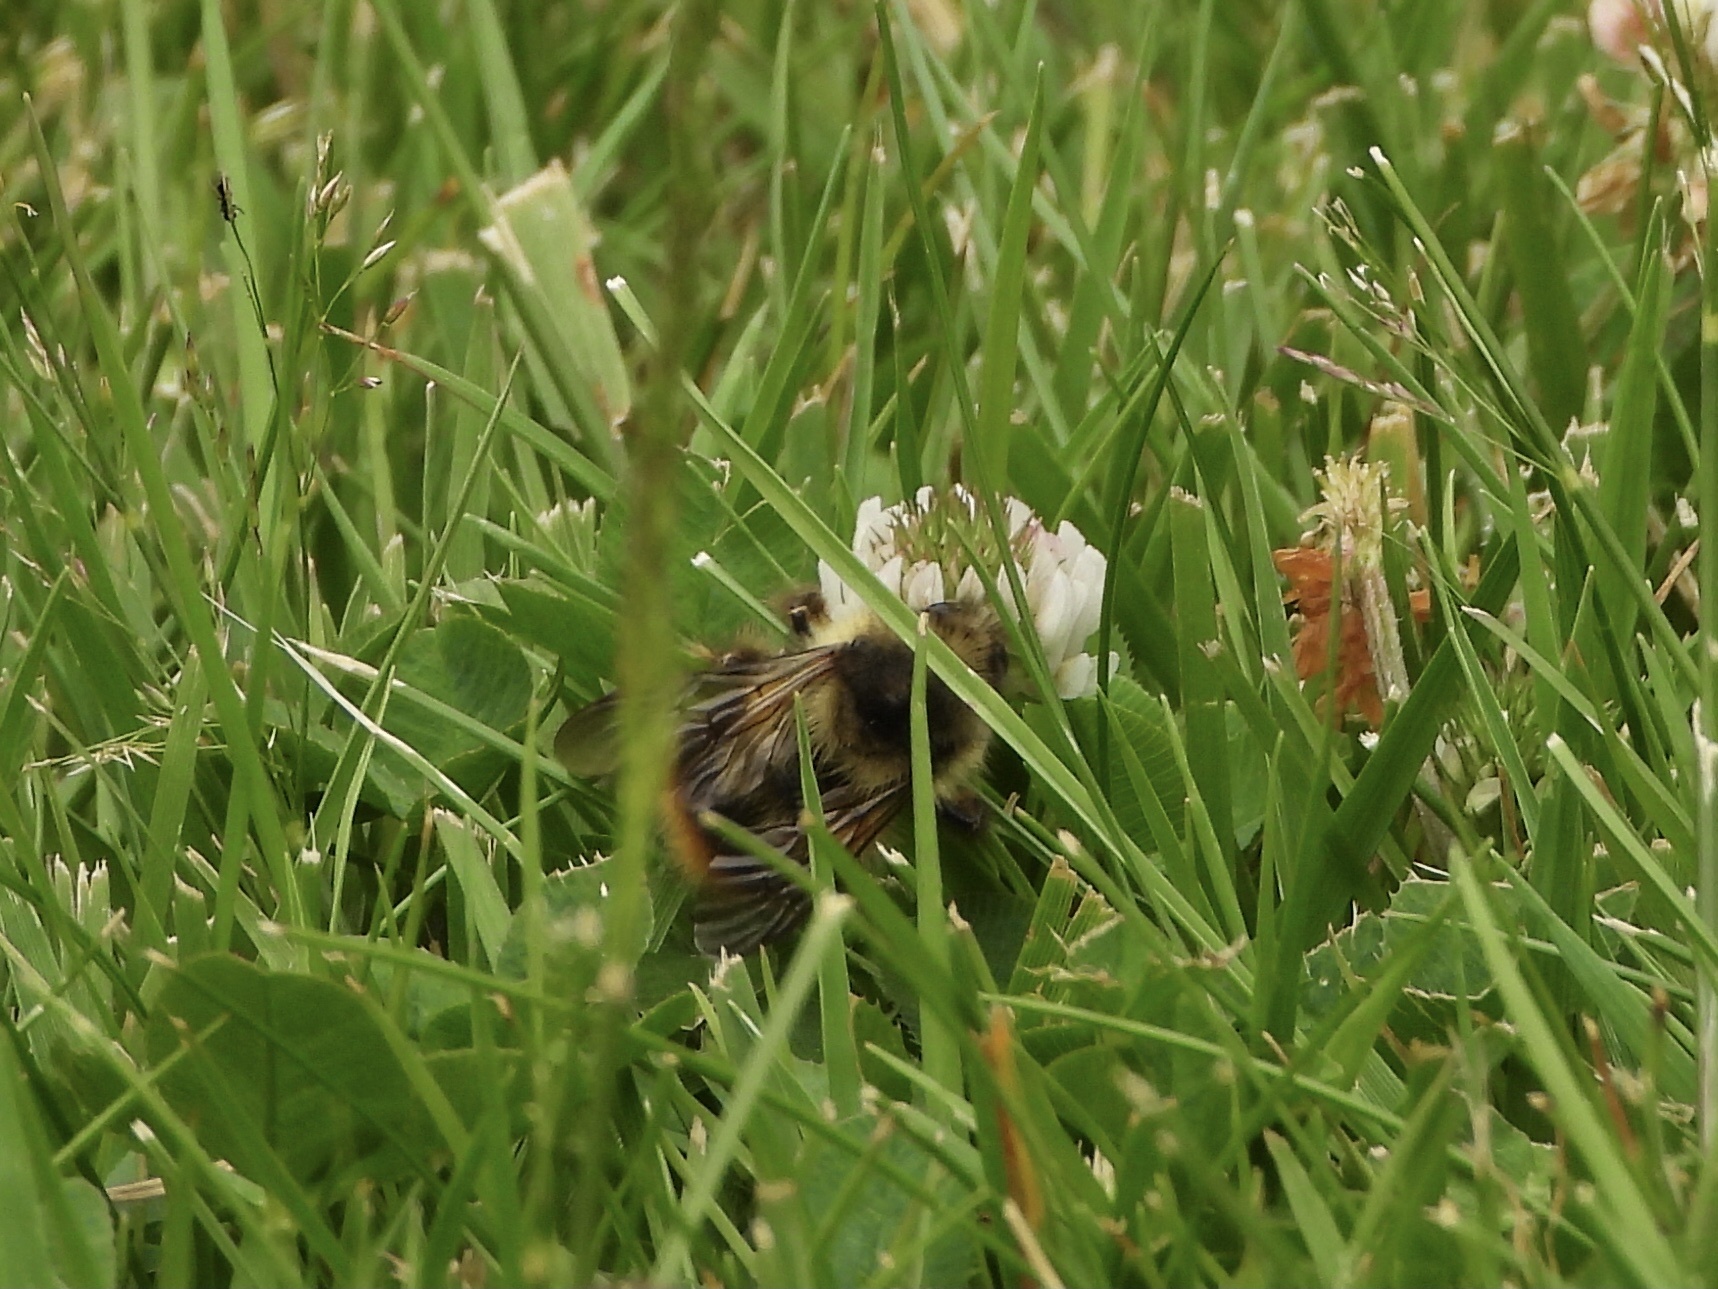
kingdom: Animalia
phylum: Arthropoda
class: Insecta
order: Hymenoptera
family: Apidae
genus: Bombus
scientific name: Bombus mixtus
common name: Fuzzy-horned bumble bee
